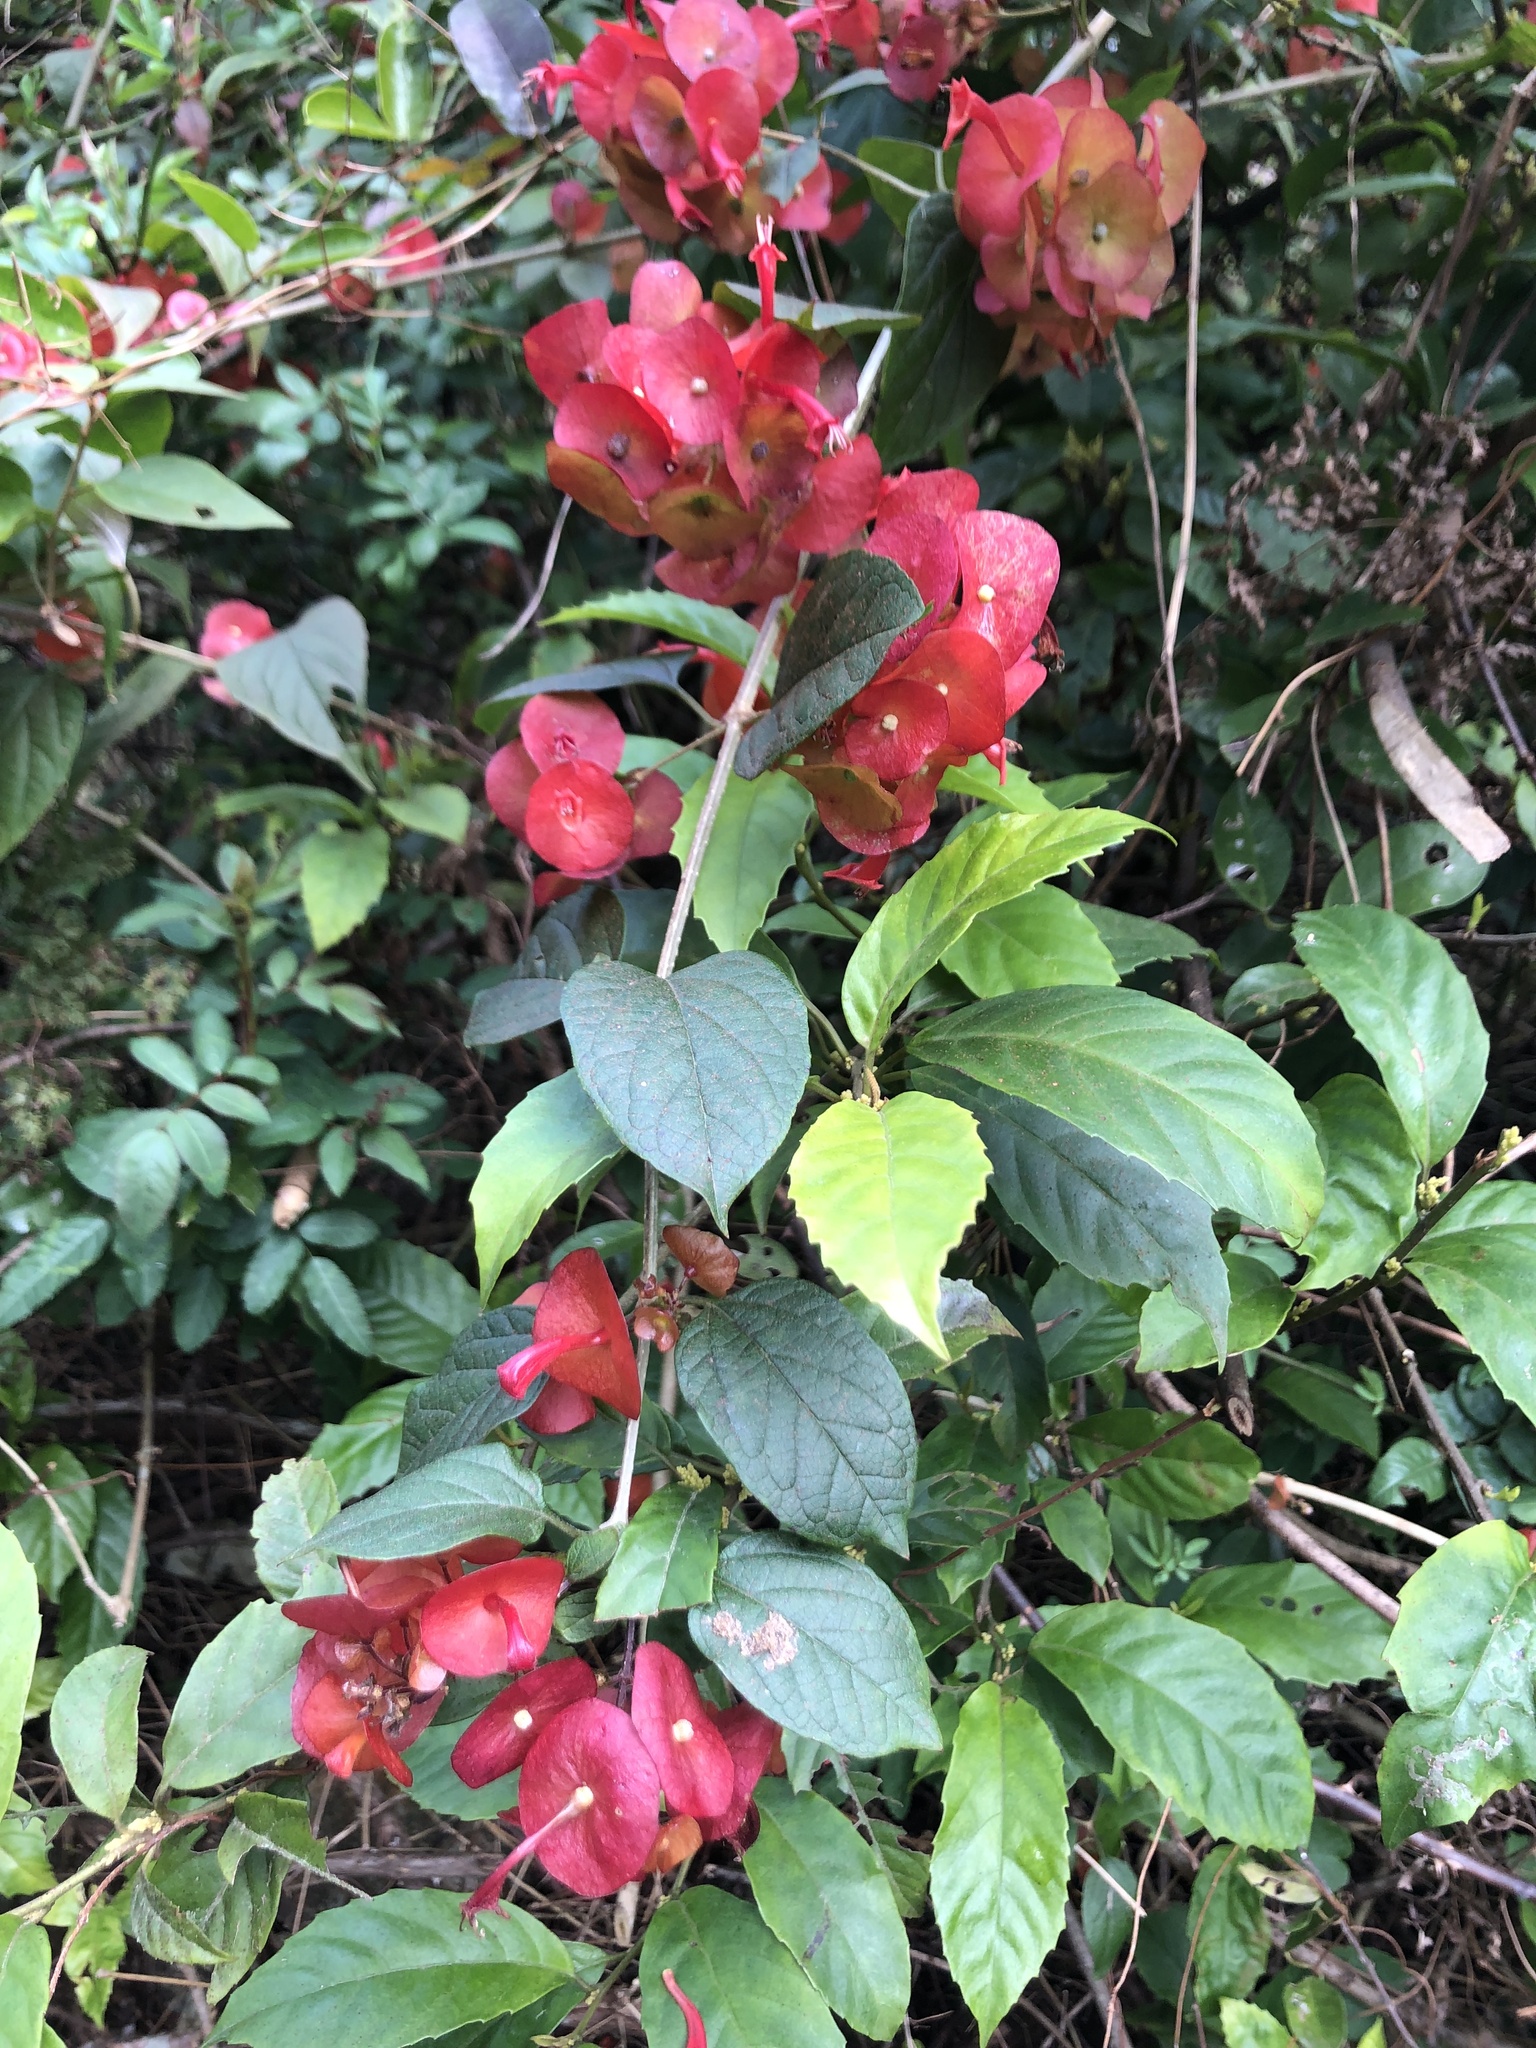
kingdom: Plantae
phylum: Tracheophyta
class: Magnoliopsida
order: Lamiales
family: Lamiaceae
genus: Holmskioldia
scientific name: Holmskioldia sanguinea
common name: Chinese hatplant
